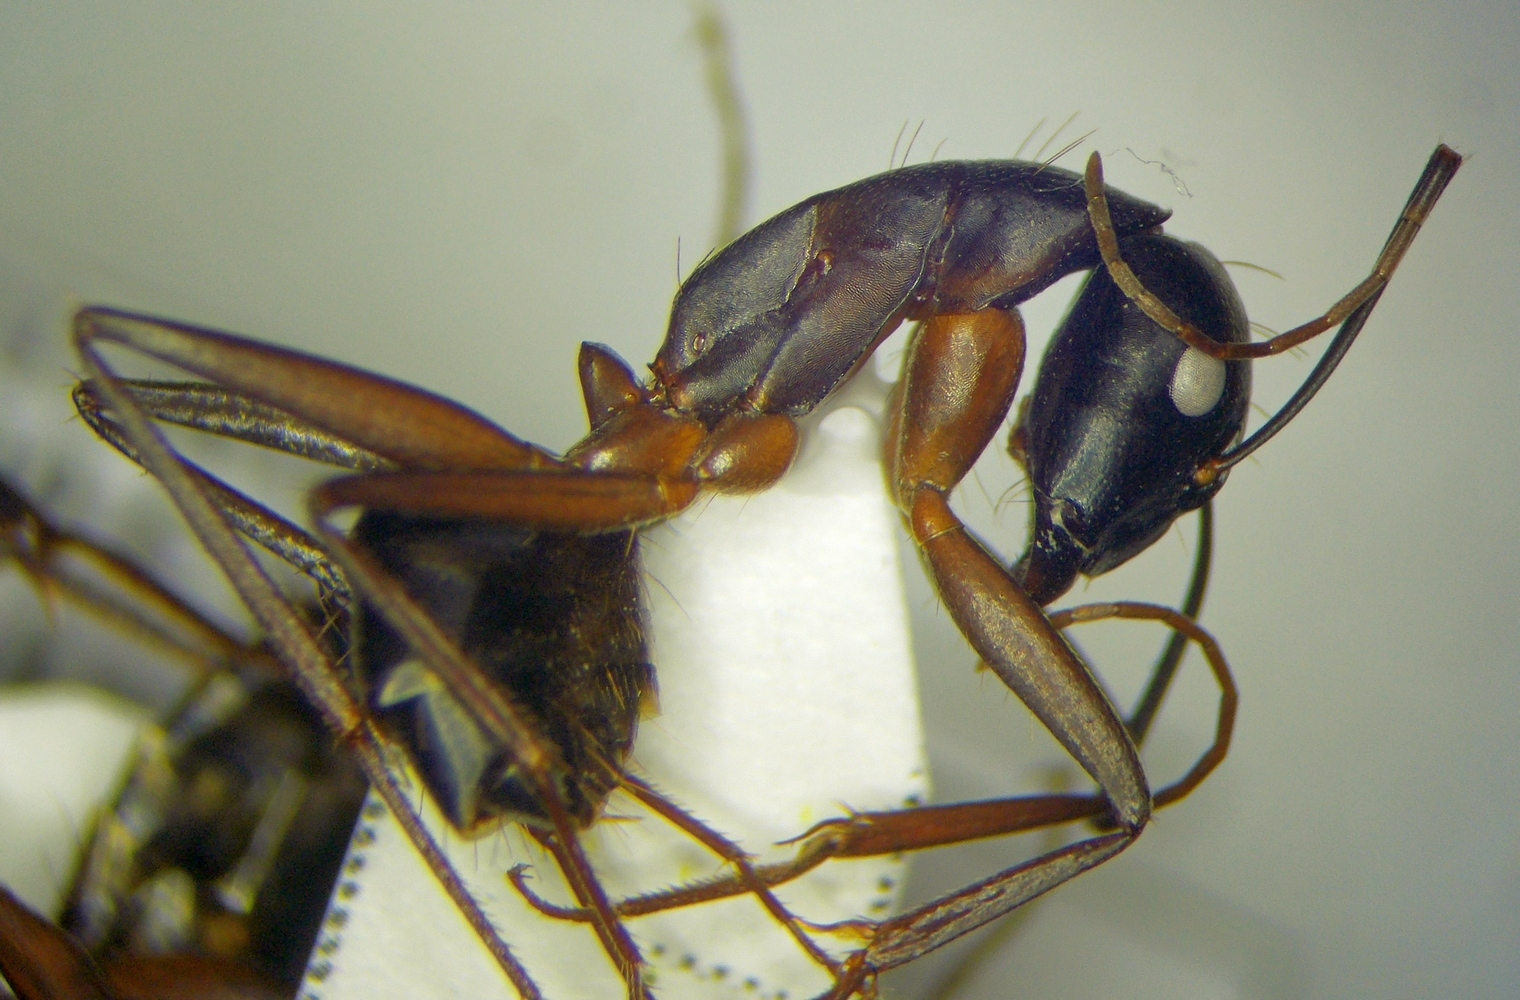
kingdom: Animalia
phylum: Arthropoda
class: Insecta
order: Hymenoptera
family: Formicidae
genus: Camponotus
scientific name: Camponotus sanctus
